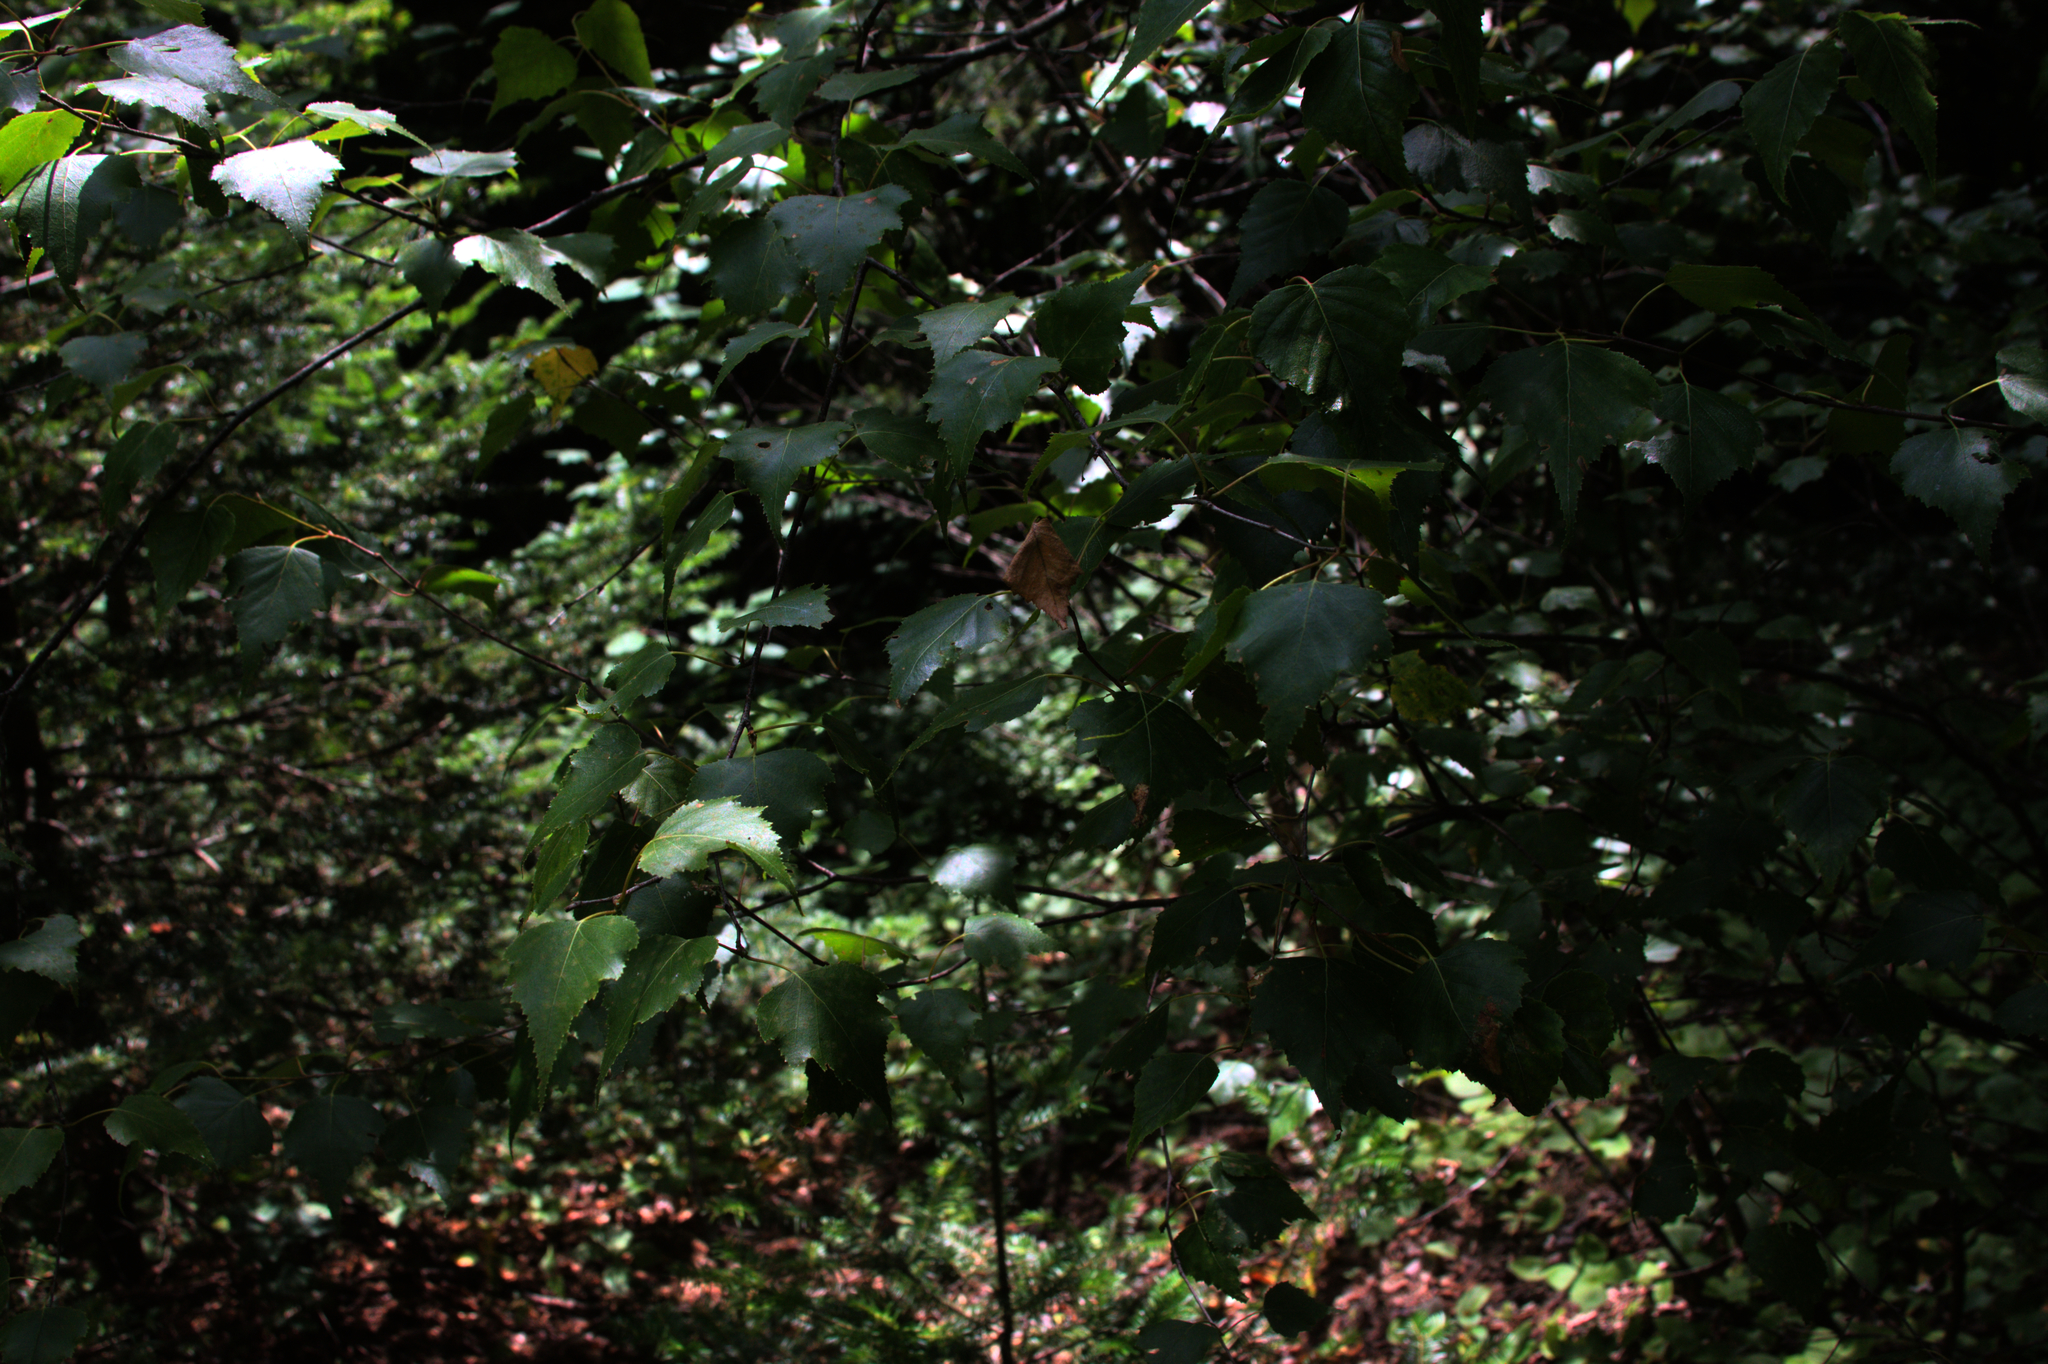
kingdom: Plantae
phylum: Tracheophyta
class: Magnoliopsida
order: Fagales
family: Betulaceae
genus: Betula
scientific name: Betula populifolia
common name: Fire birch
